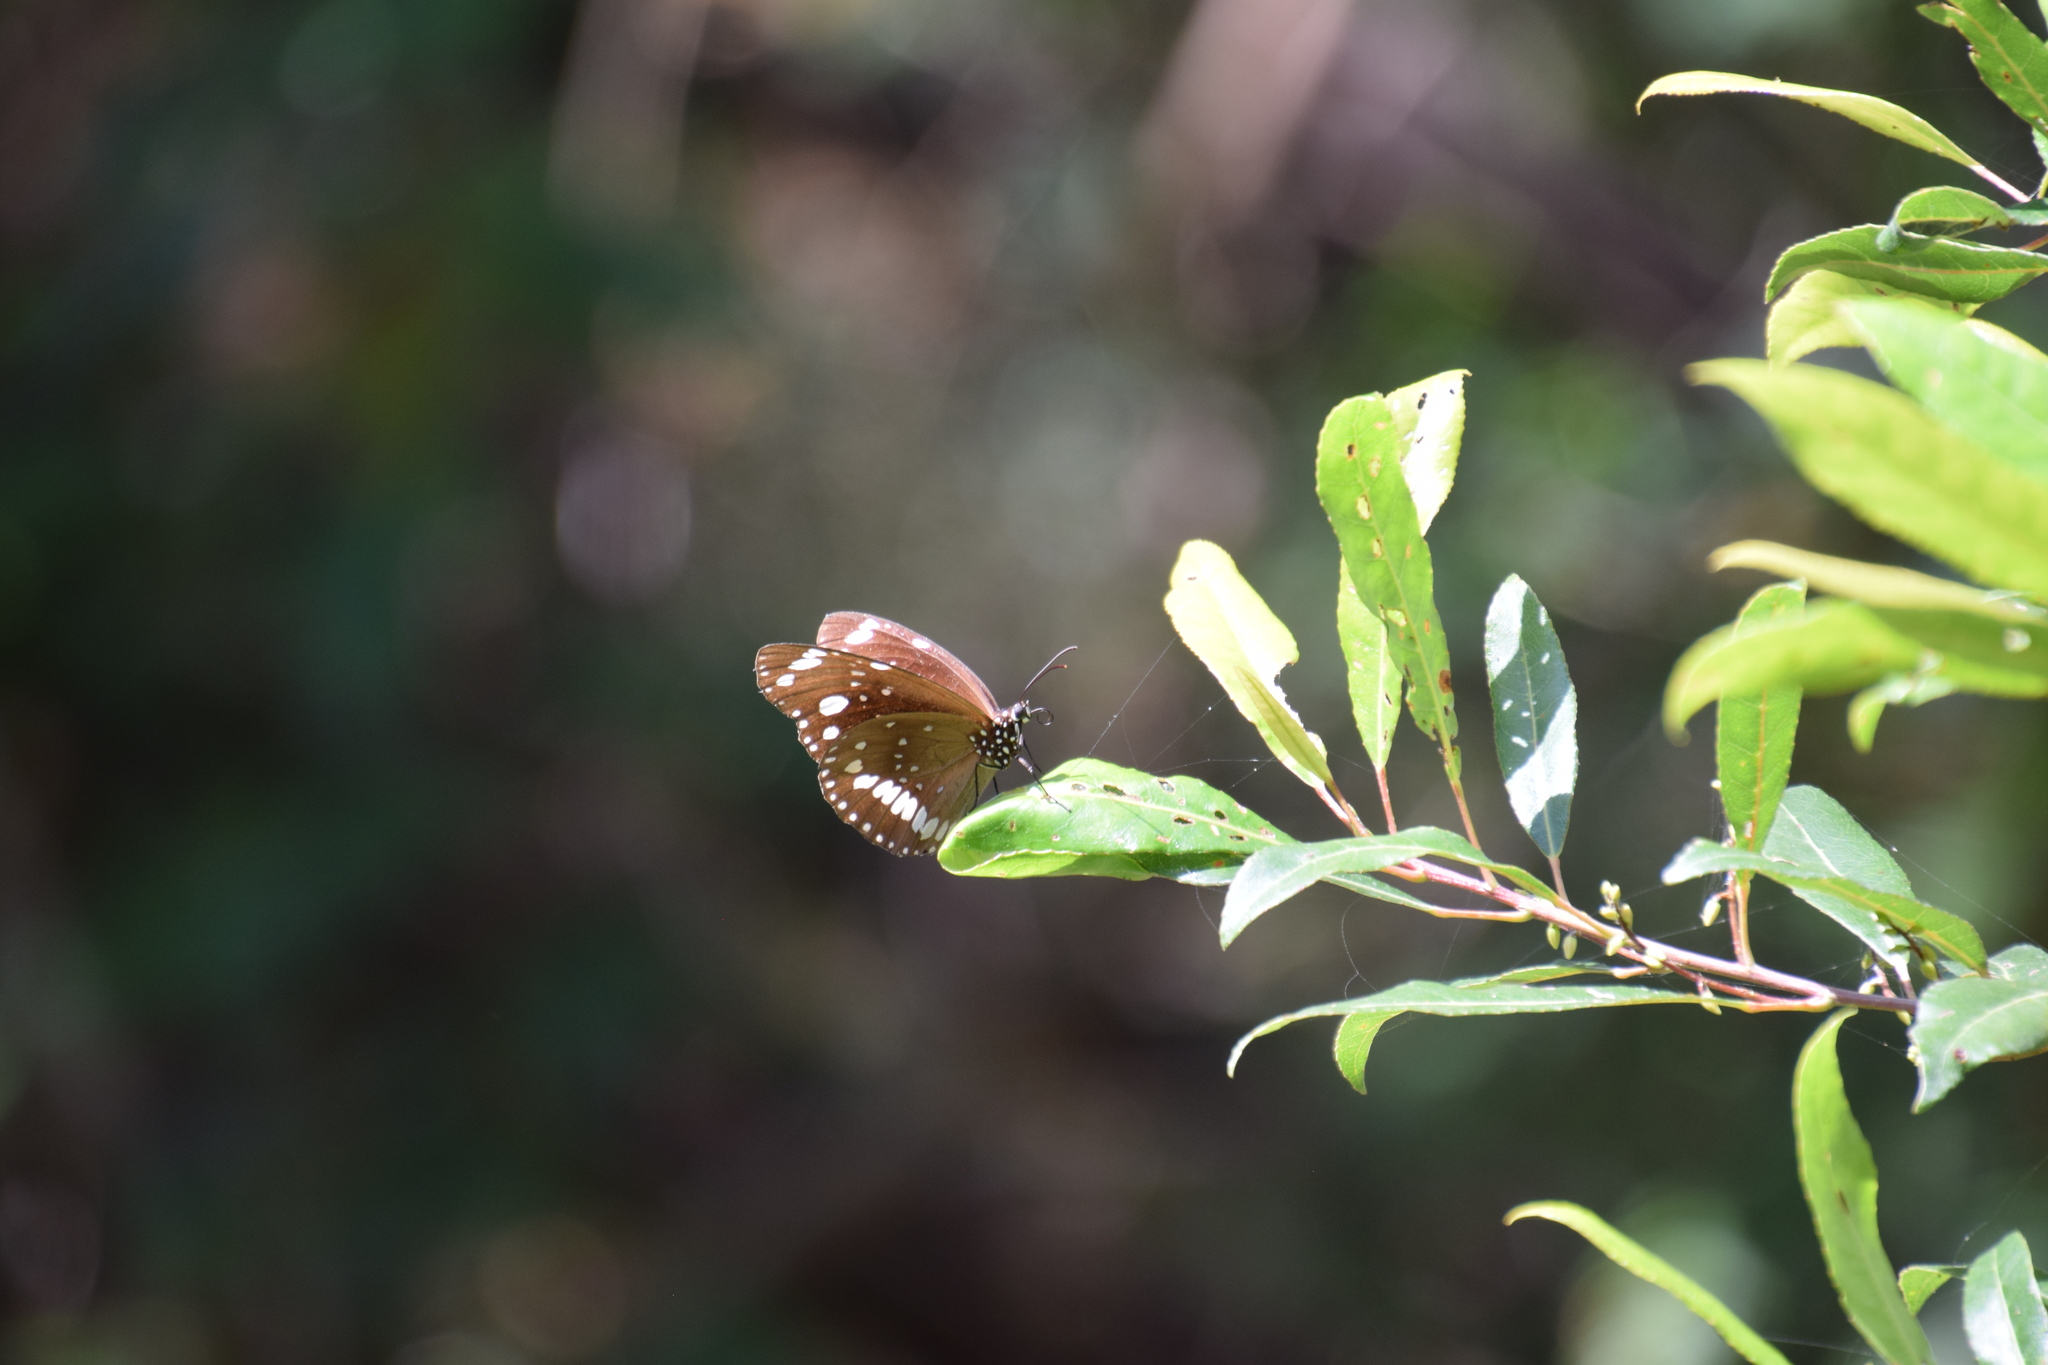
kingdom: Animalia
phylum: Arthropoda
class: Insecta
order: Lepidoptera
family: Nymphalidae
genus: Euploea
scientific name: Euploea core
